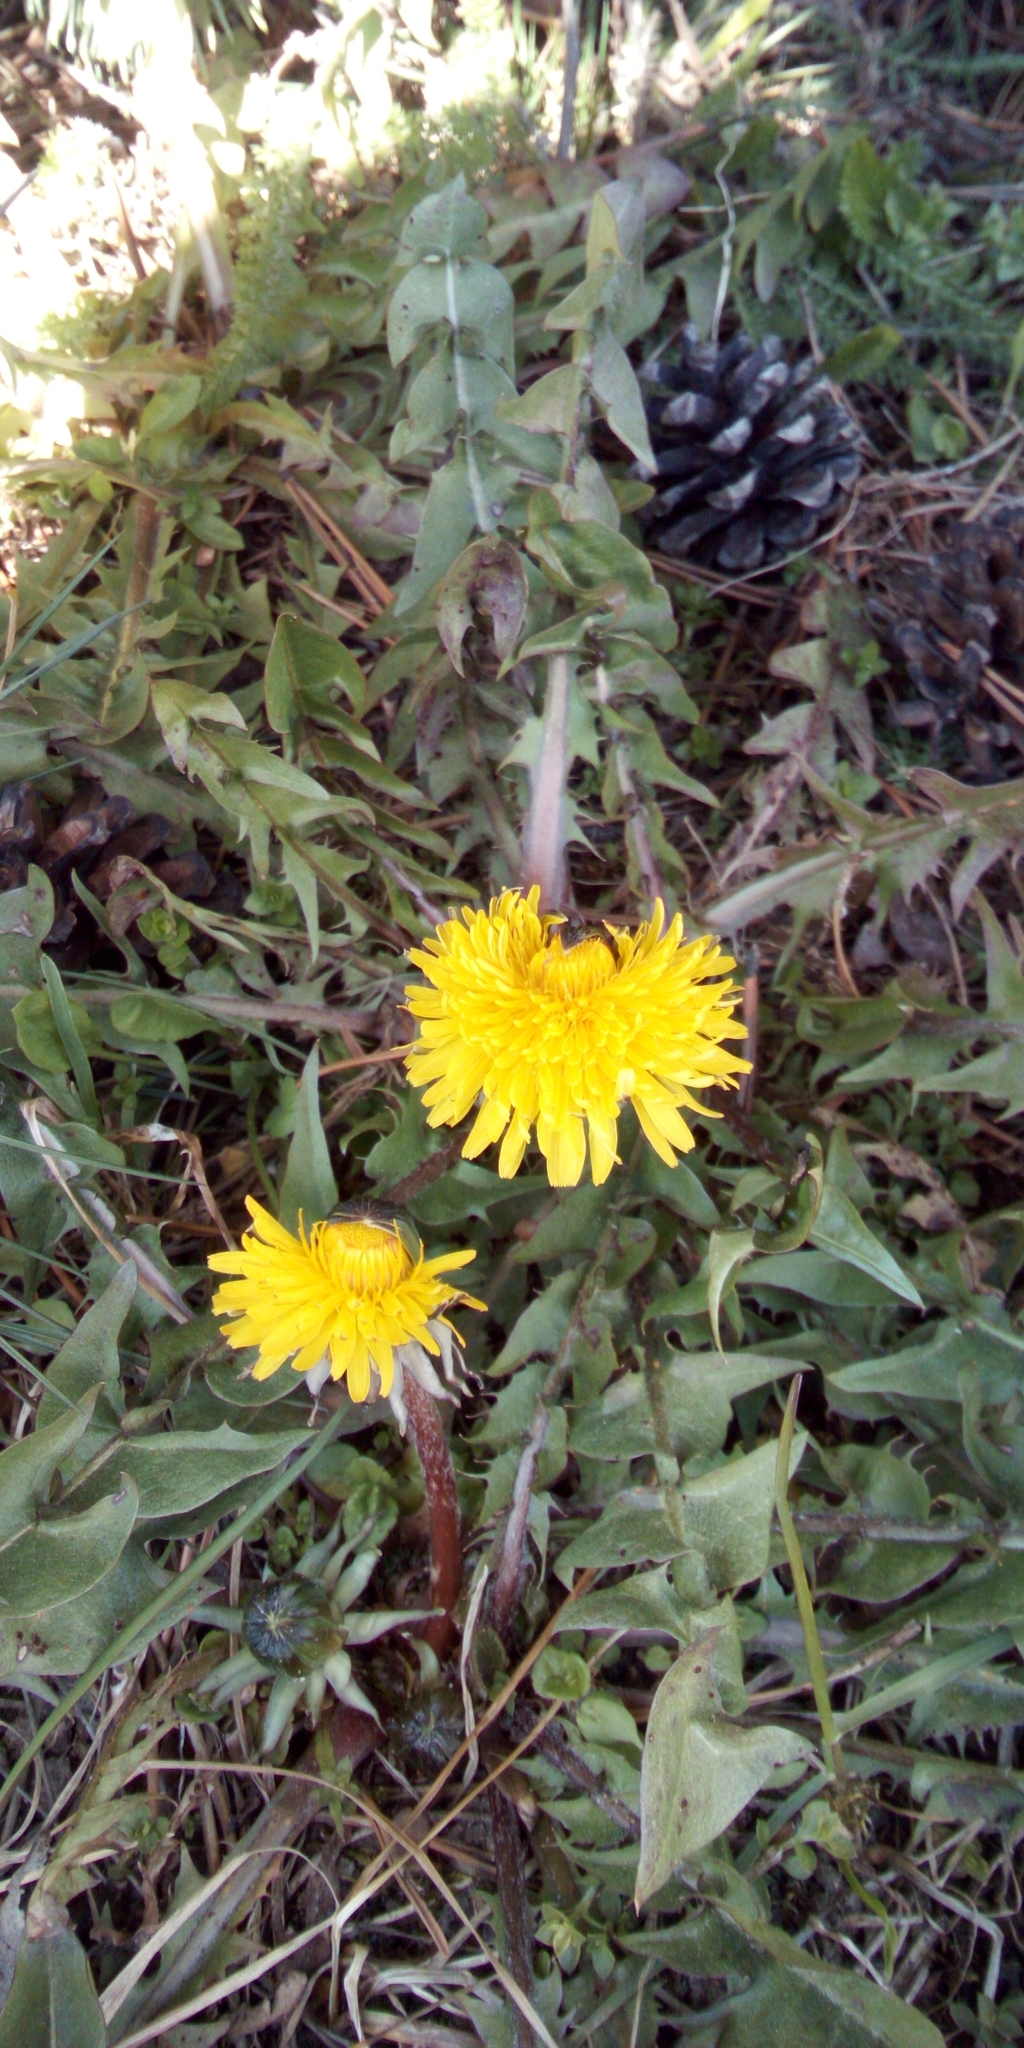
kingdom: Plantae
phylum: Tracheophyta
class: Magnoliopsida
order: Asterales
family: Asteraceae
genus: Taraxacum
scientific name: Taraxacum officinale
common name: Common dandelion
